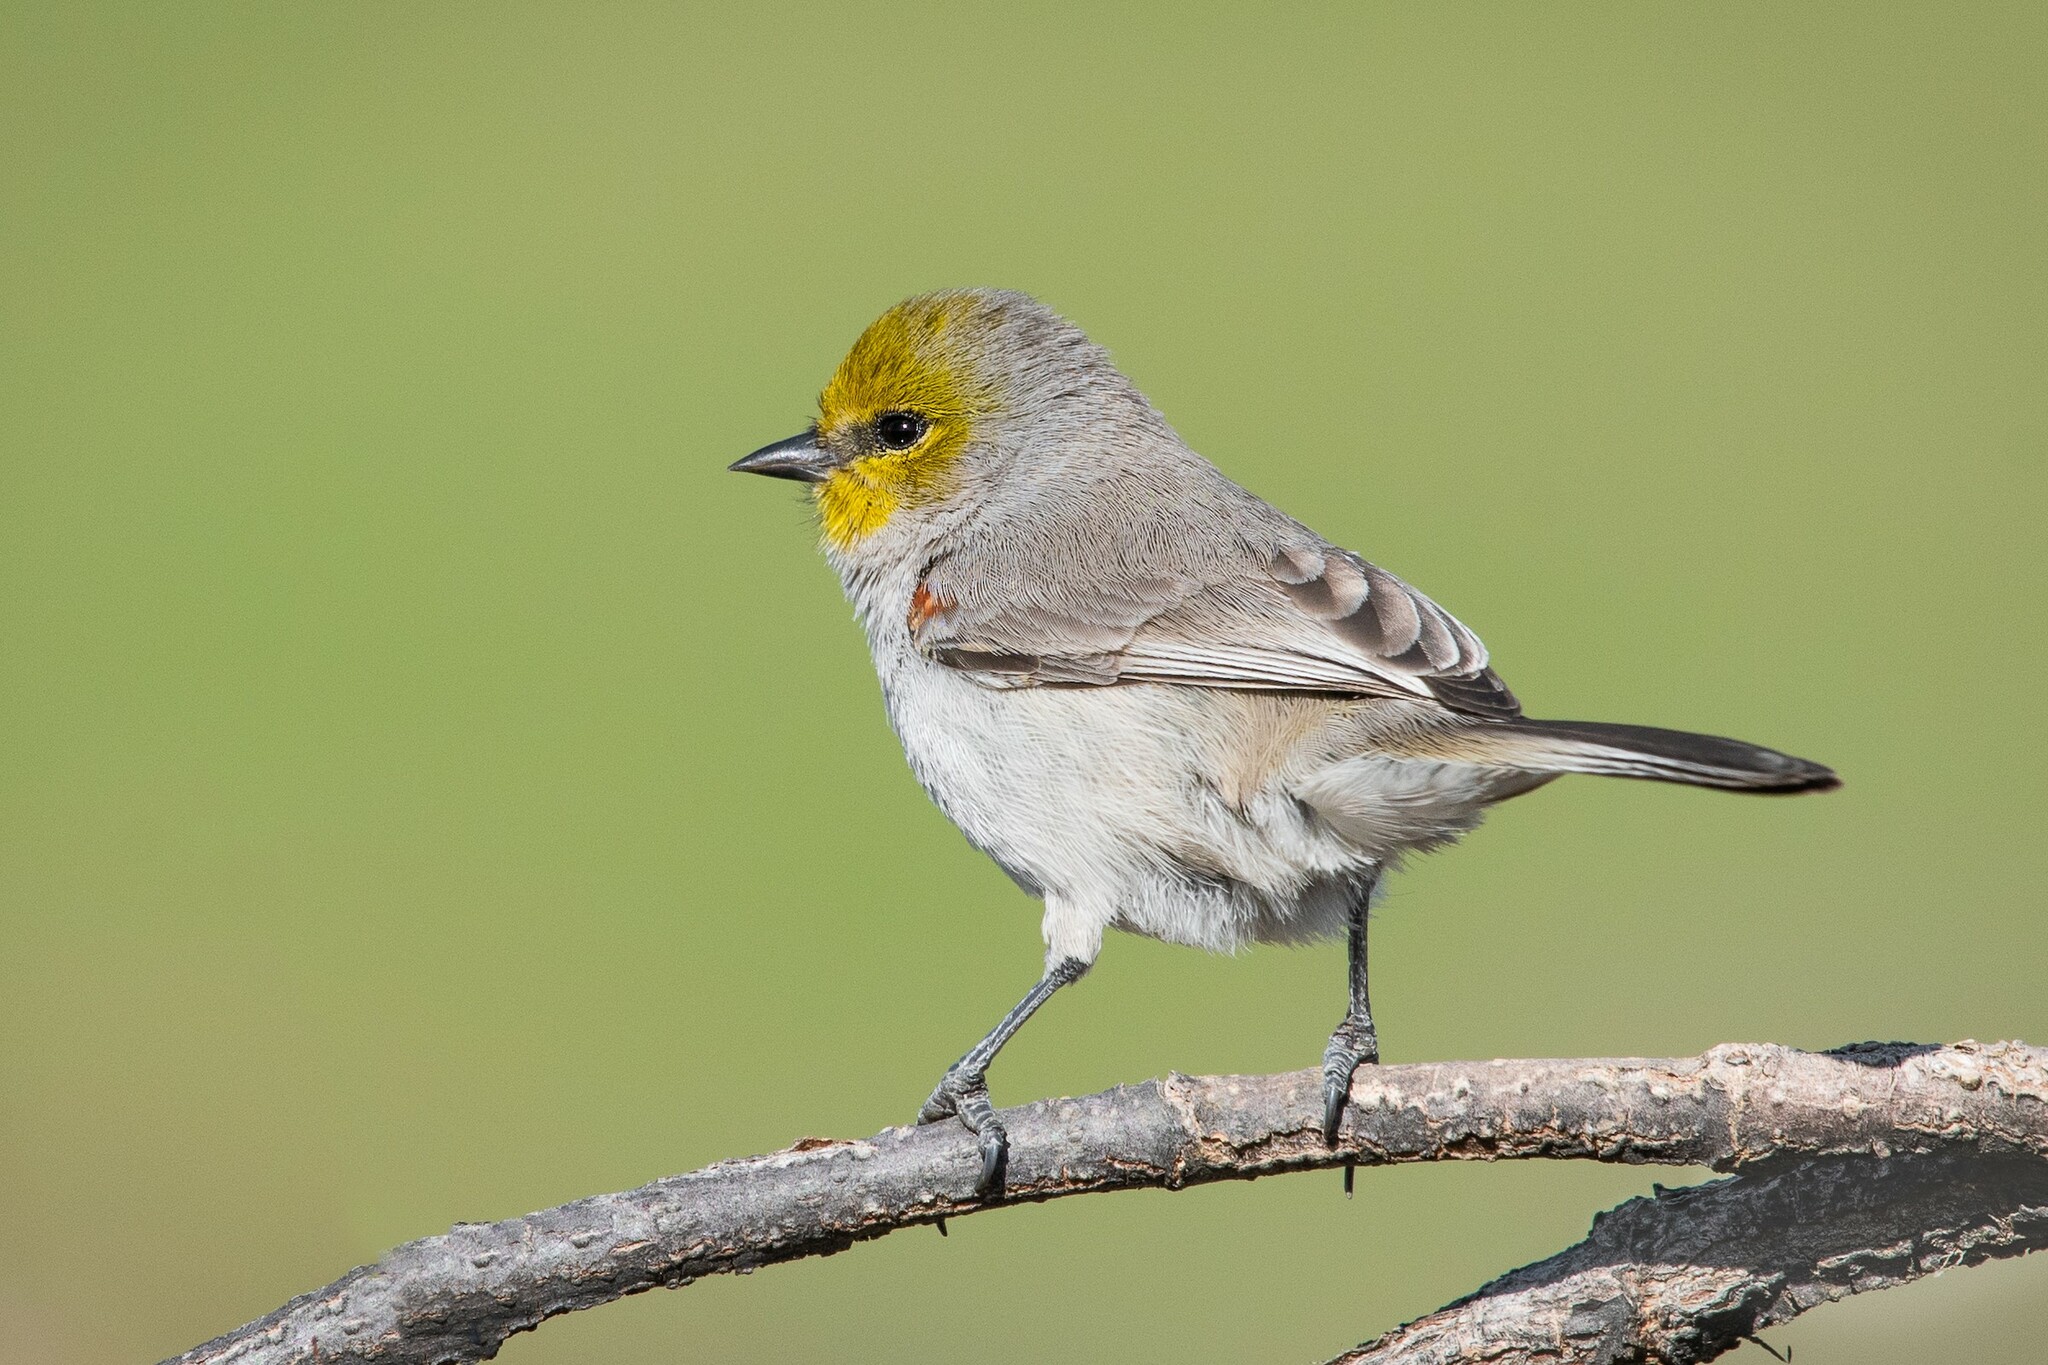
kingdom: Animalia
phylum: Chordata
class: Aves
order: Passeriformes
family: Remizidae
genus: Auriparus
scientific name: Auriparus flaviceps
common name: Verdin
